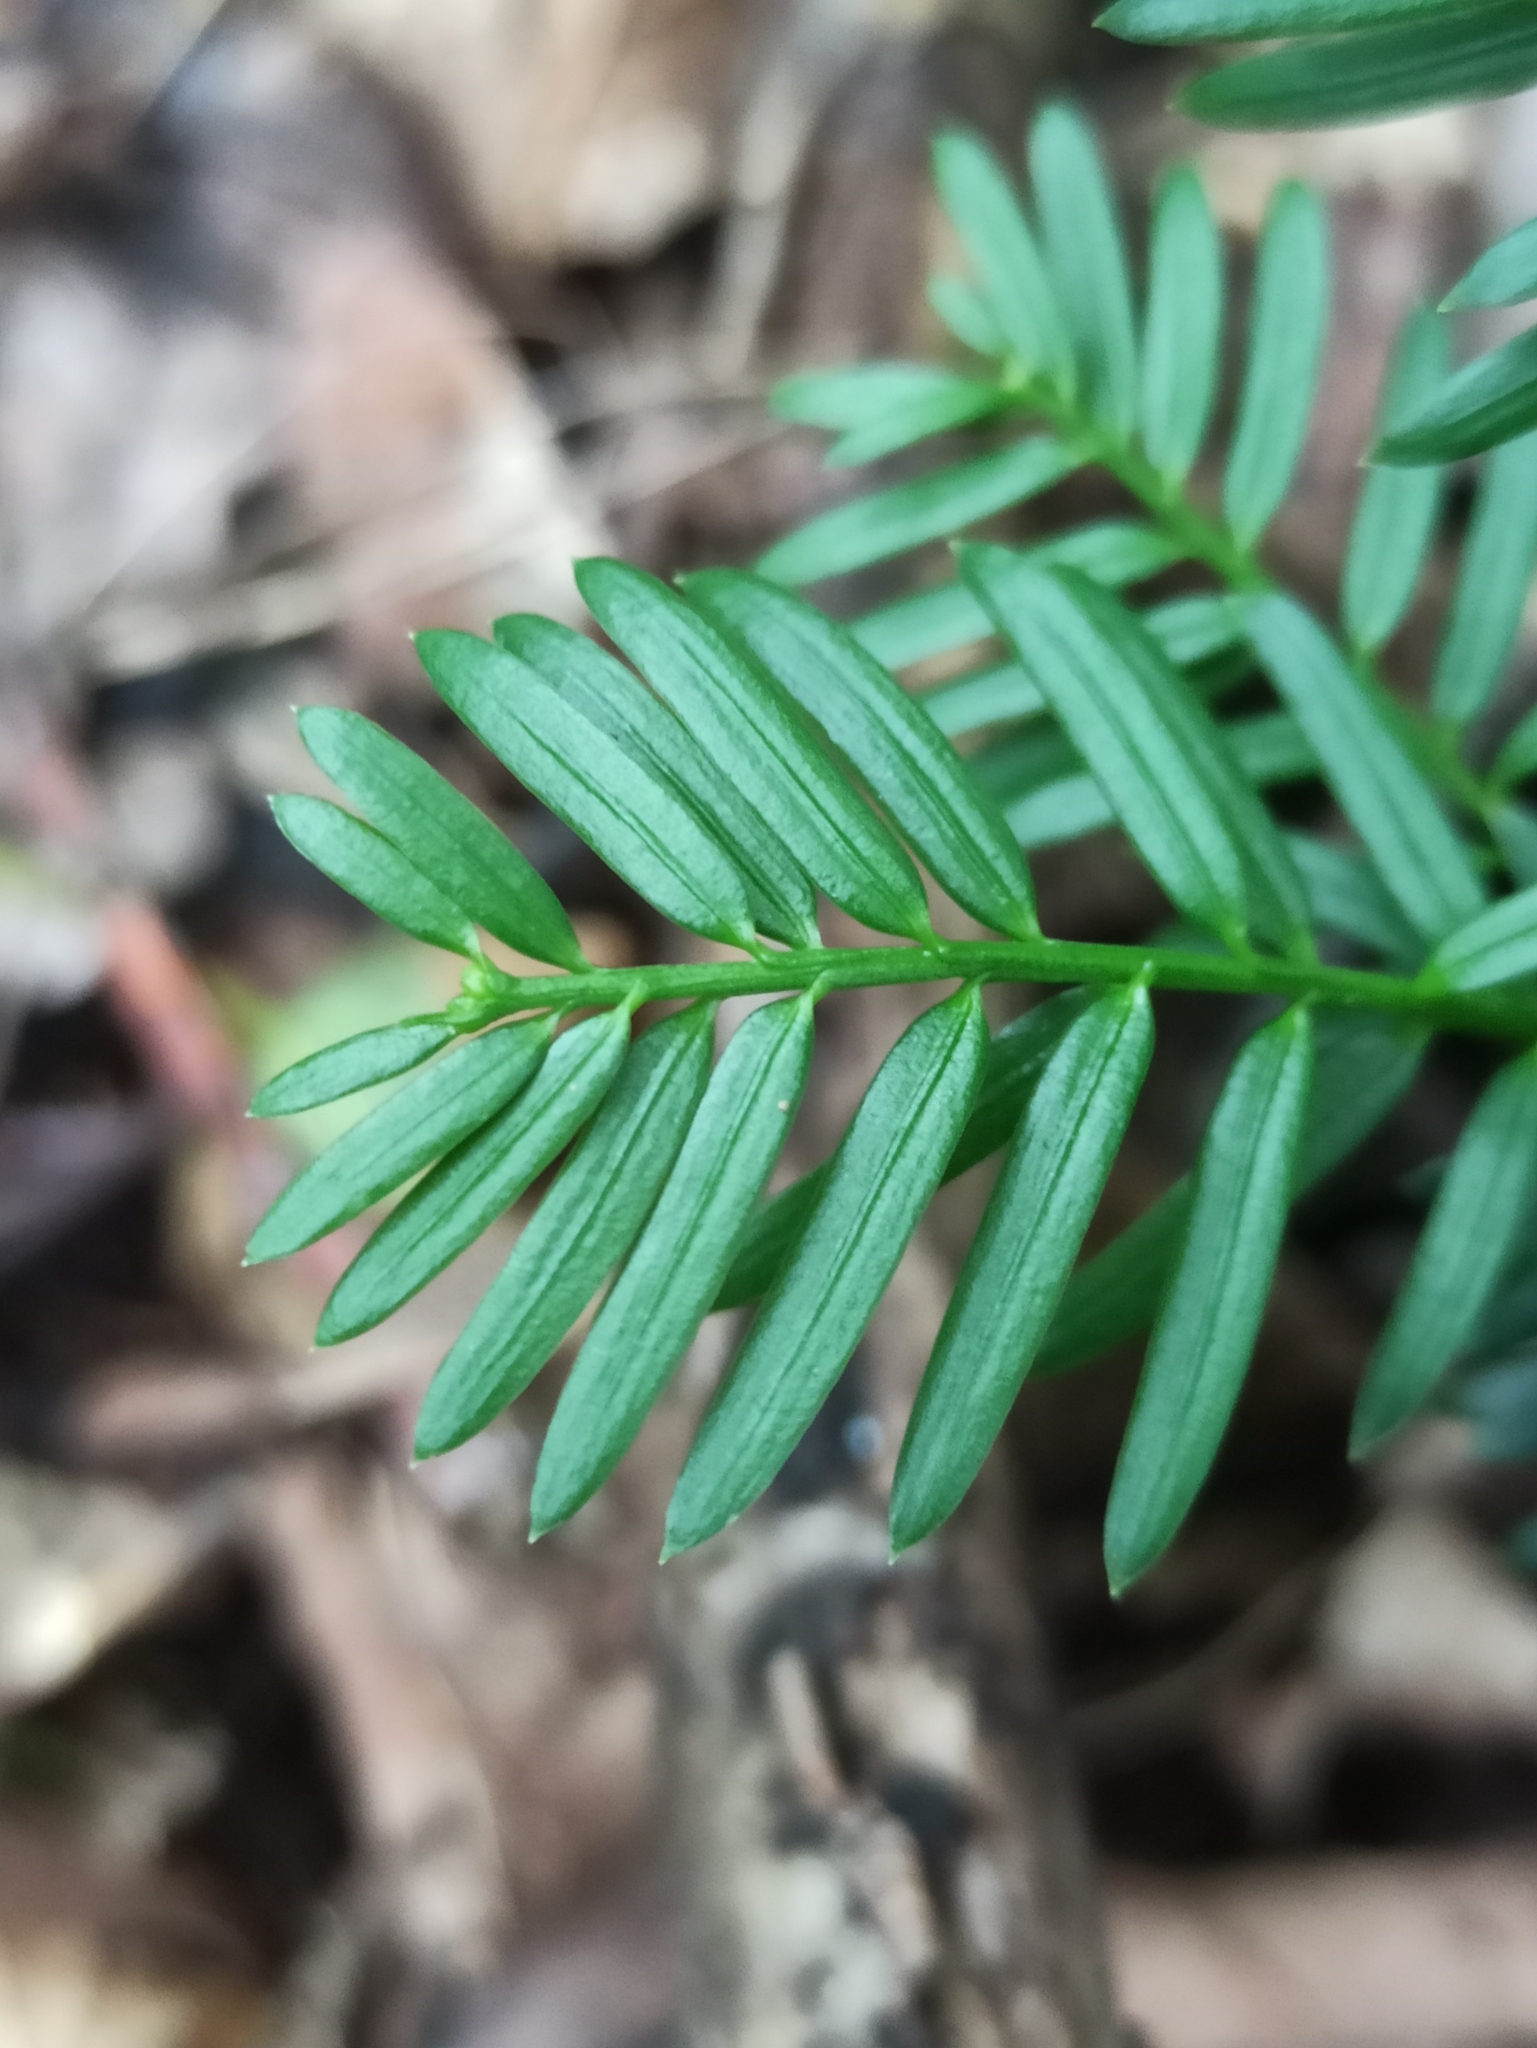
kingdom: Plantae
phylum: Tracheophyta
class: Pinopsida
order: Pinales
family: Taxaceae
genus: Taxus
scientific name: Taxus baccata
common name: Yew
